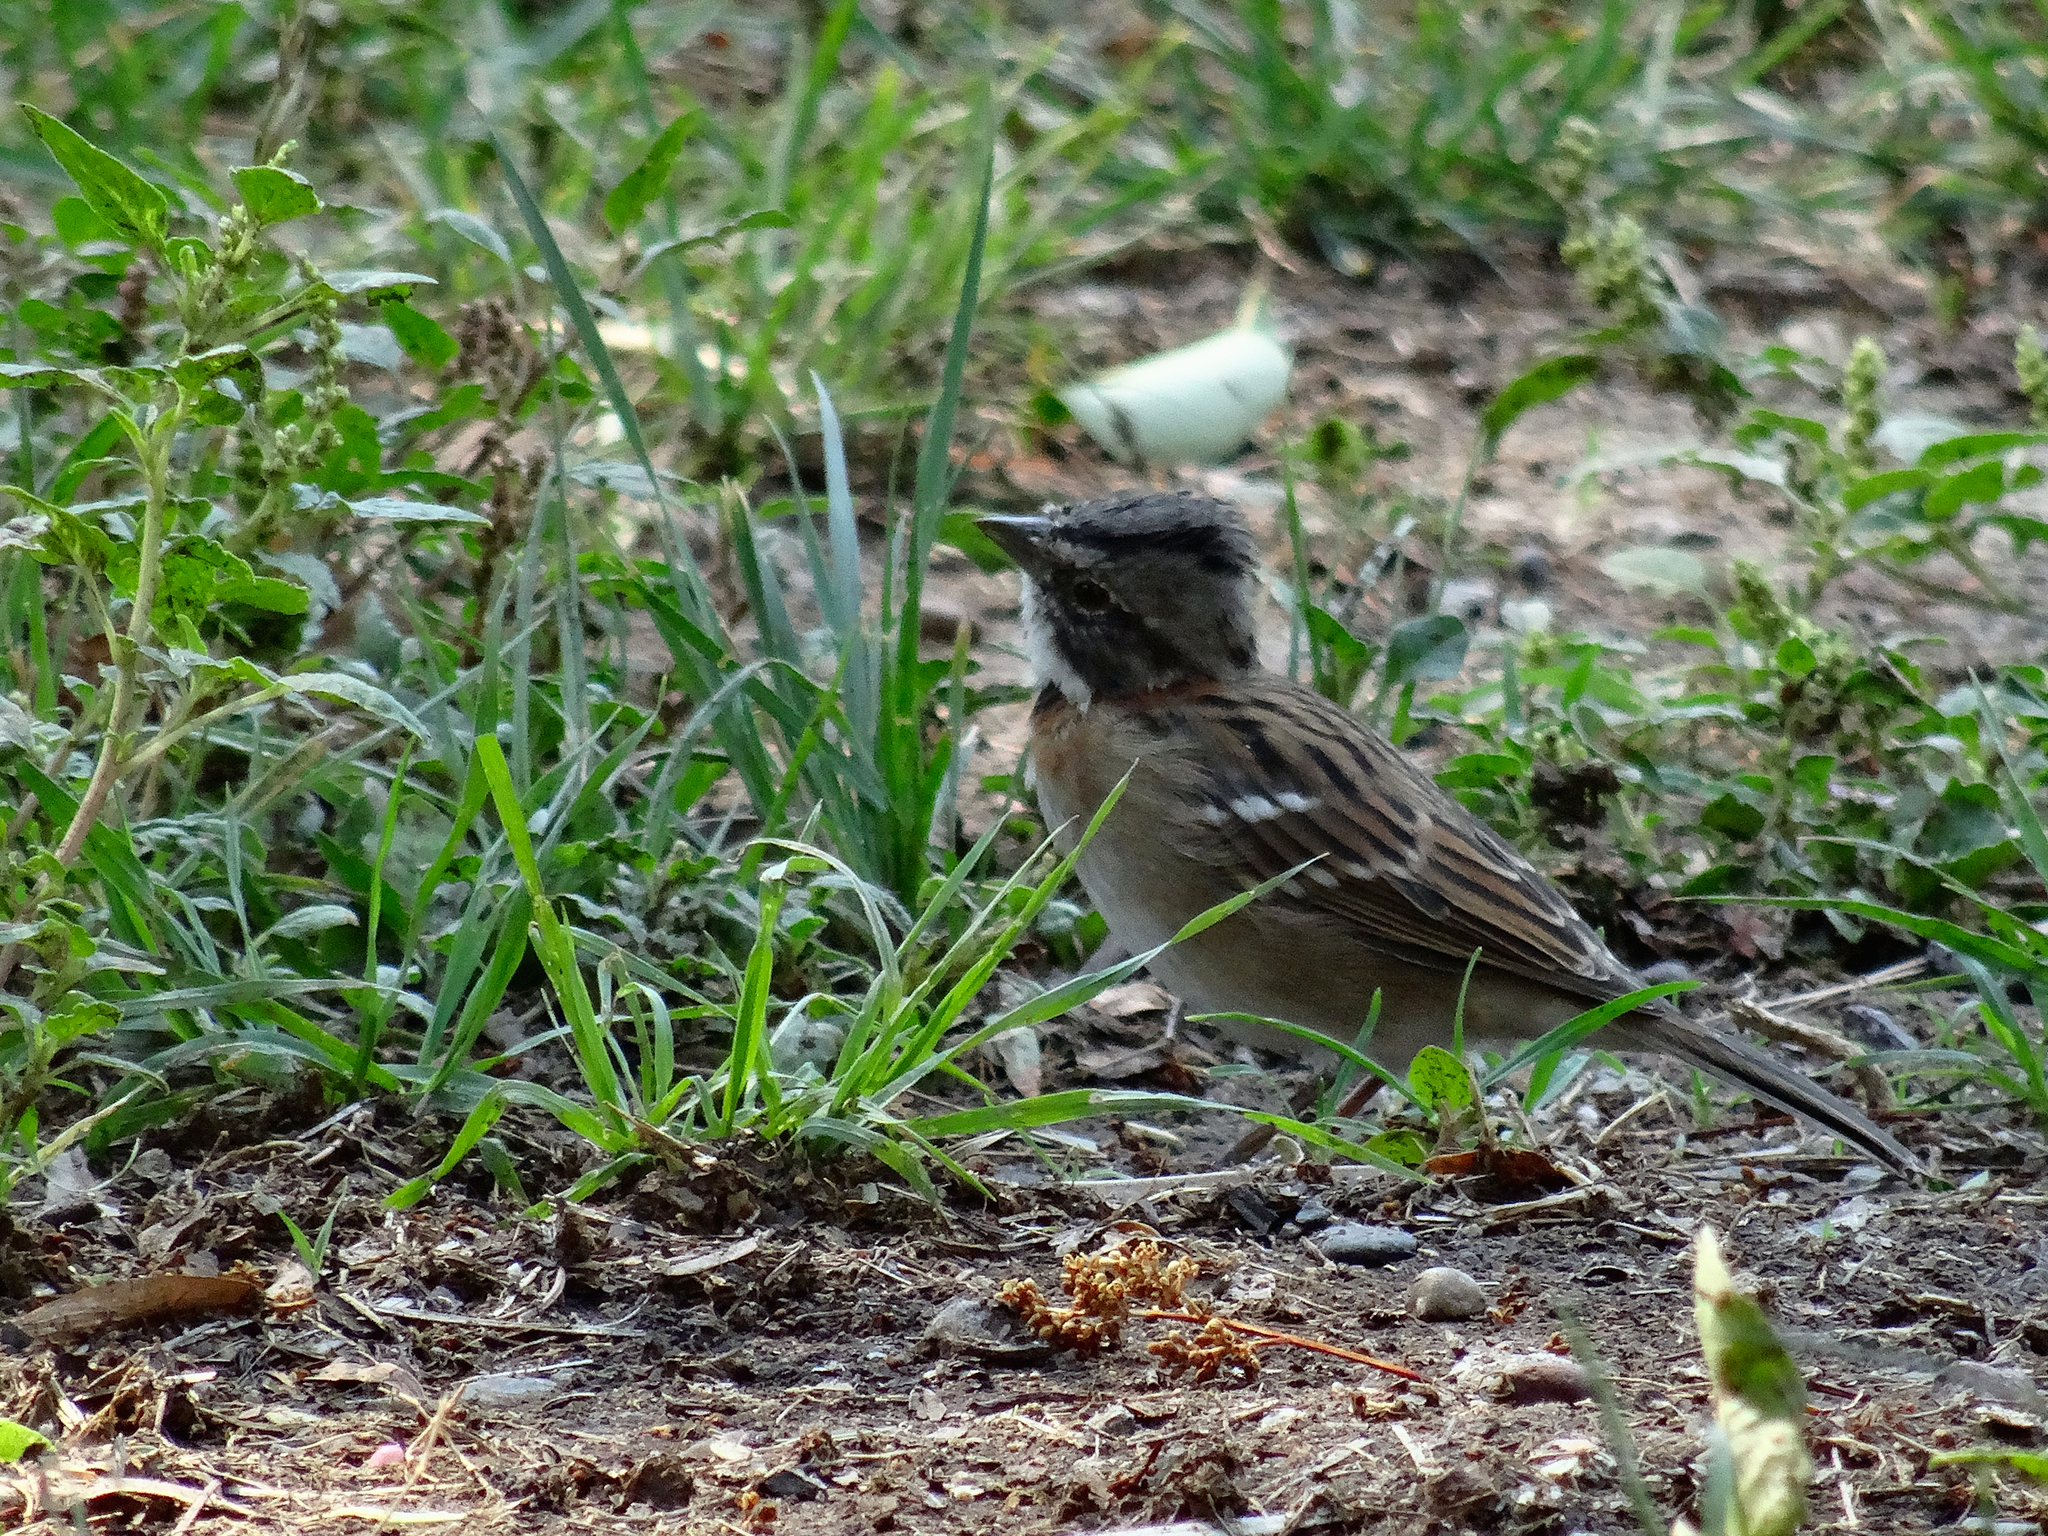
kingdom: Animalia
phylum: Chordata
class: Aves
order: Passeriformes
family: Passerellidae
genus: Zonotrichia
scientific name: Zonotrichia capensis
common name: Rufous-collared sparrow
